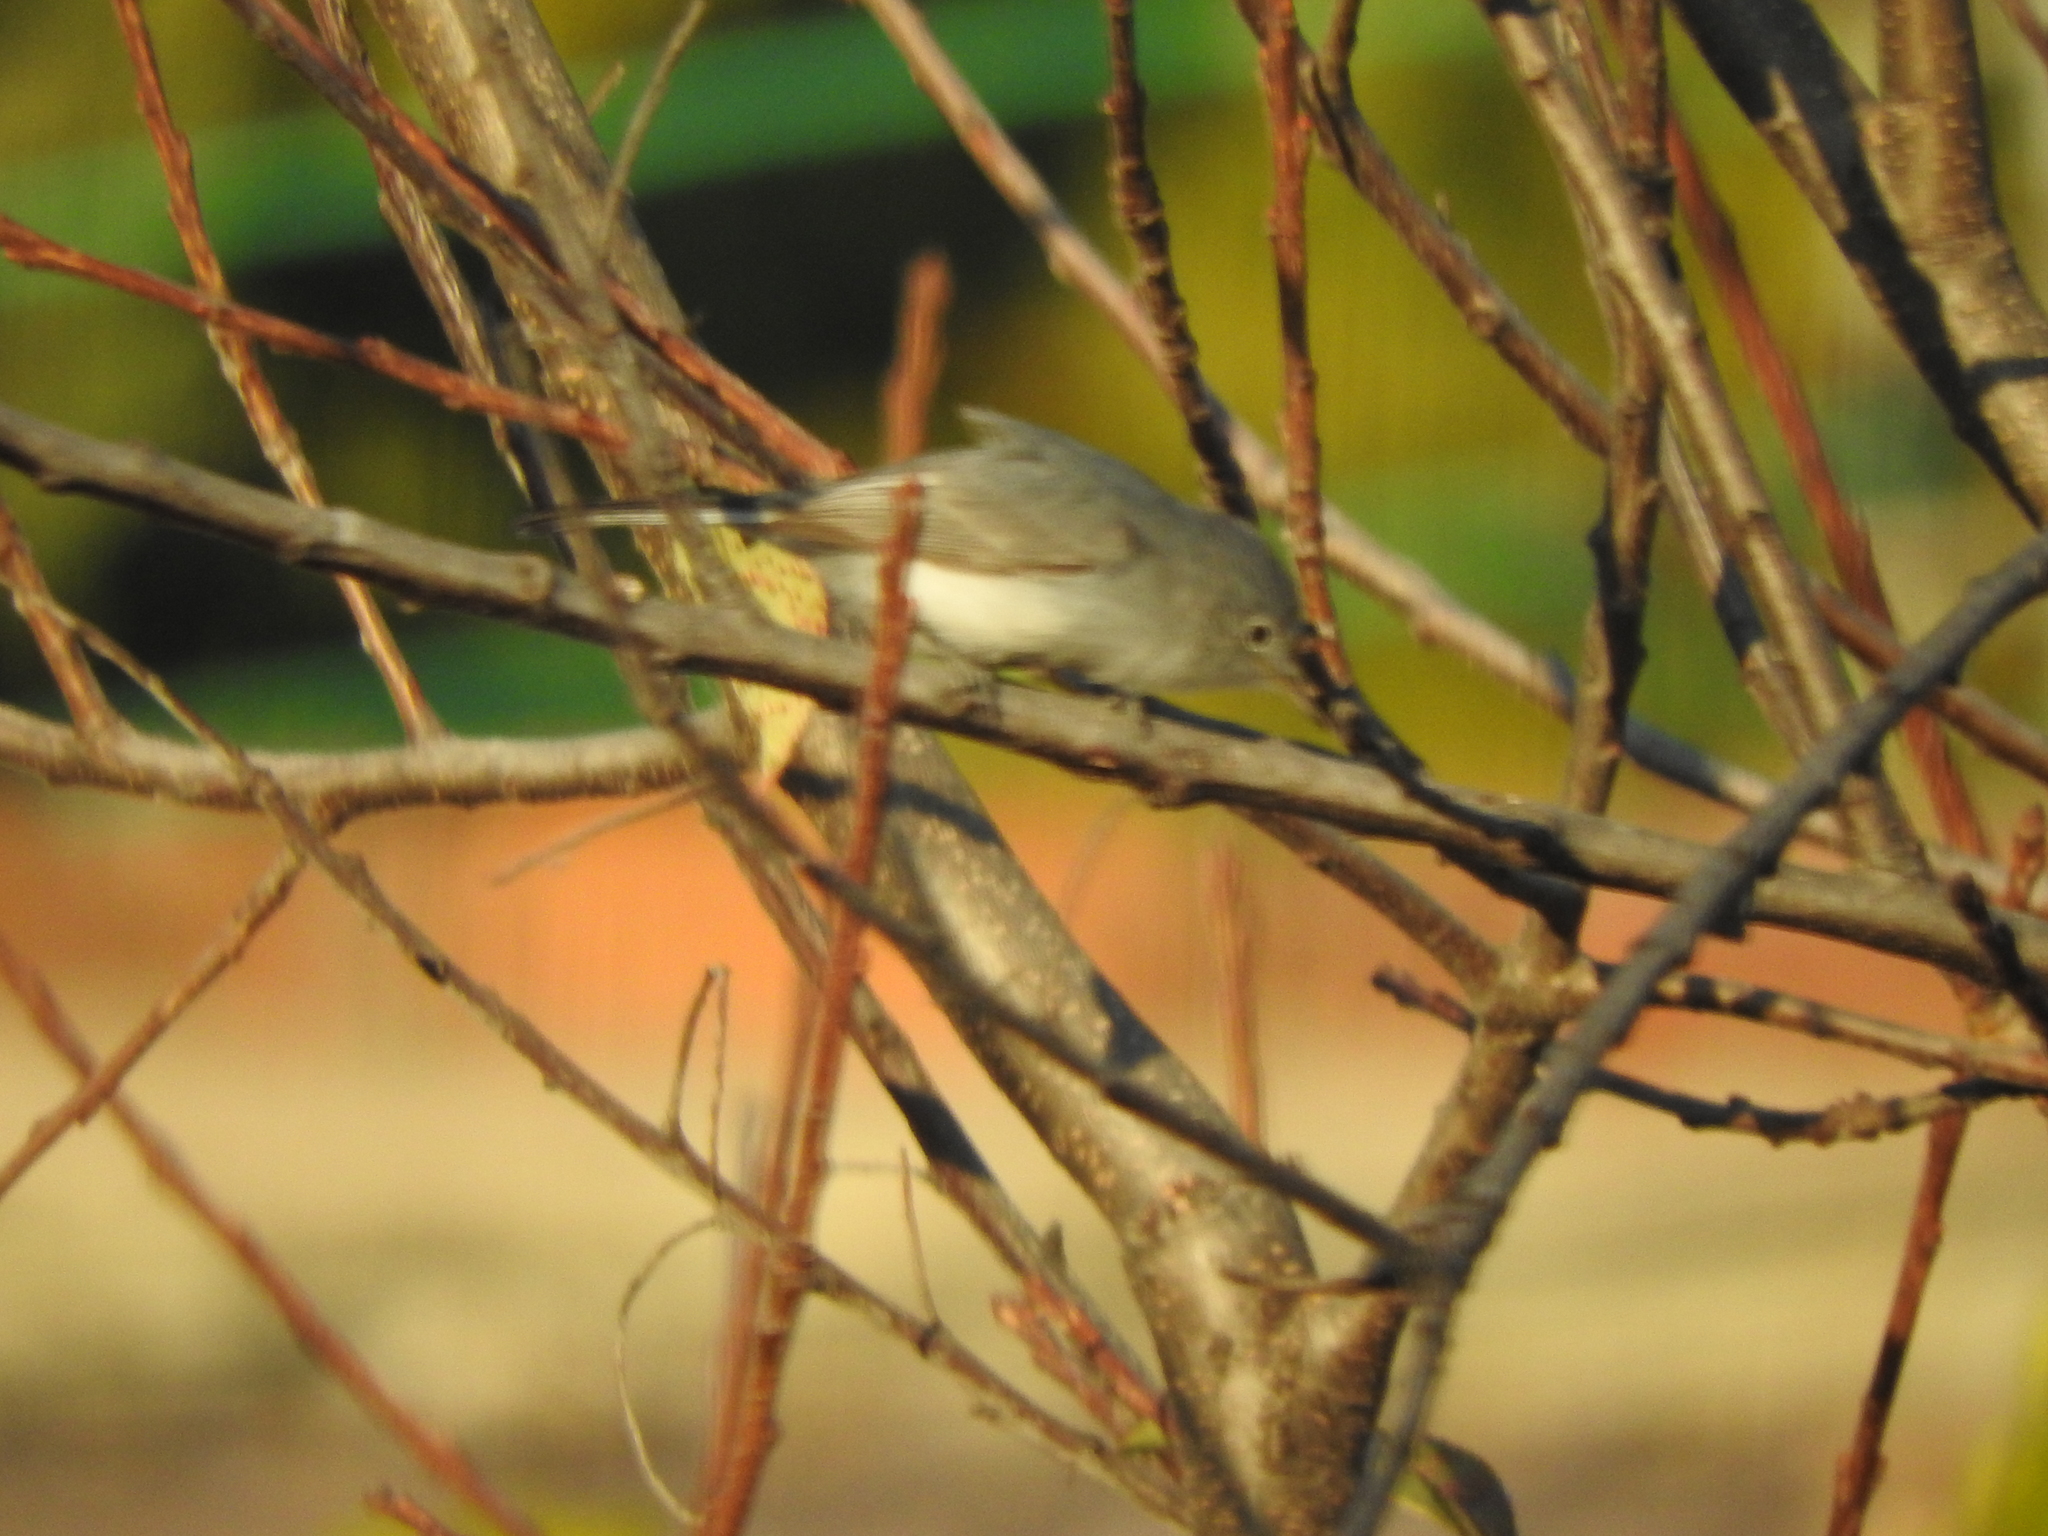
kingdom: Animalia
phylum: Chordata
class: Aves
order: Passeriformes
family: Polioptilidae
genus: Polioptila
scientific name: Polioptila caerulea
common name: Blue-gray gnatcatcher
